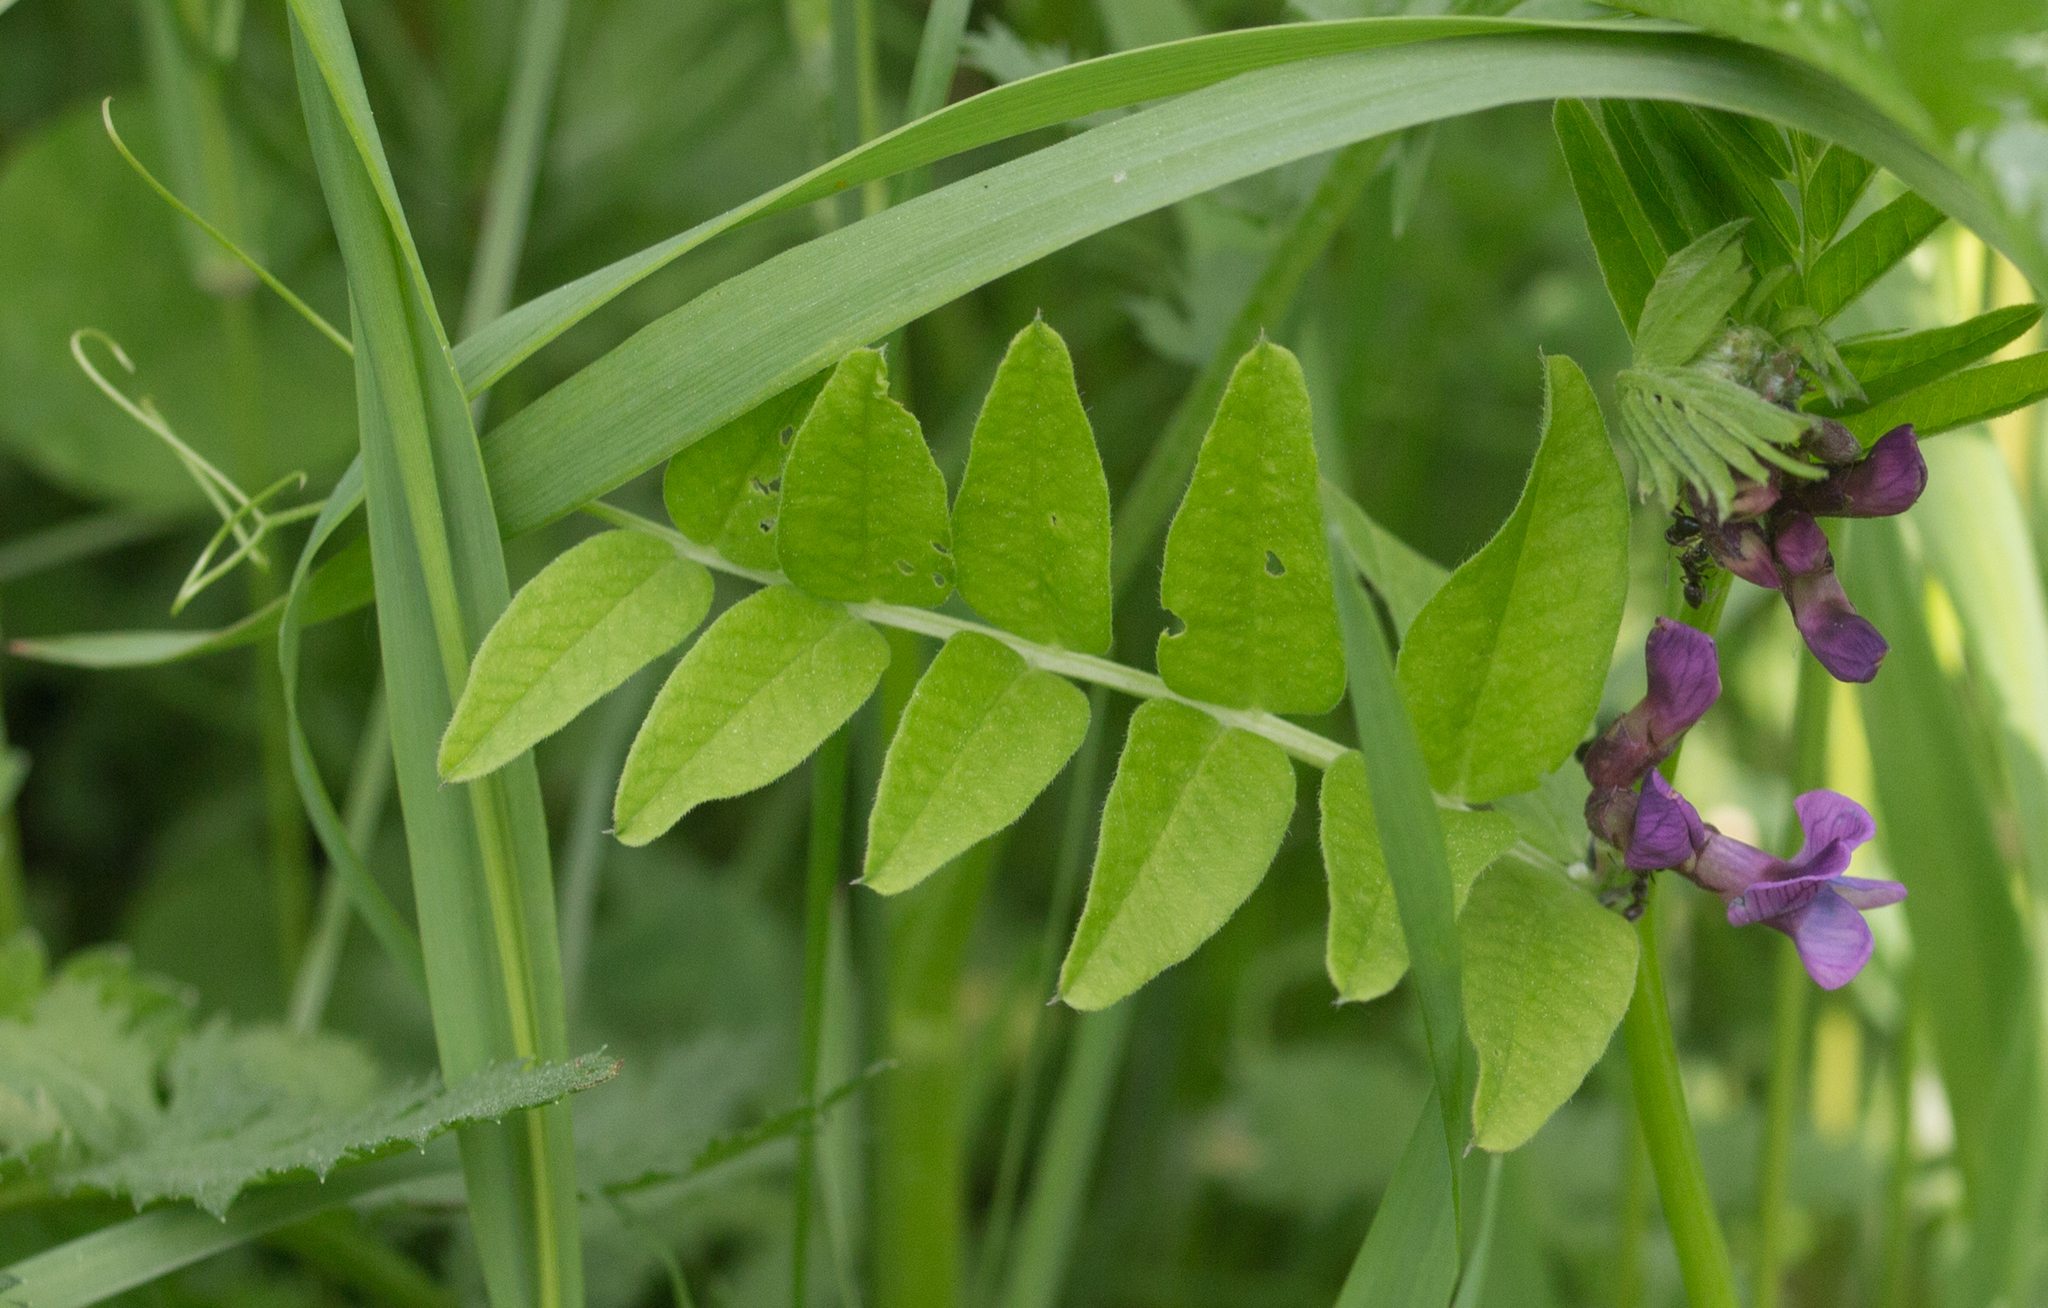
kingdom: Plantae
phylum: Tracheophyta
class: Magnoliopsida
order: Fabales
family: Fabaceae
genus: Vicia
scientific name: Vicia sepium
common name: Bush vetch
